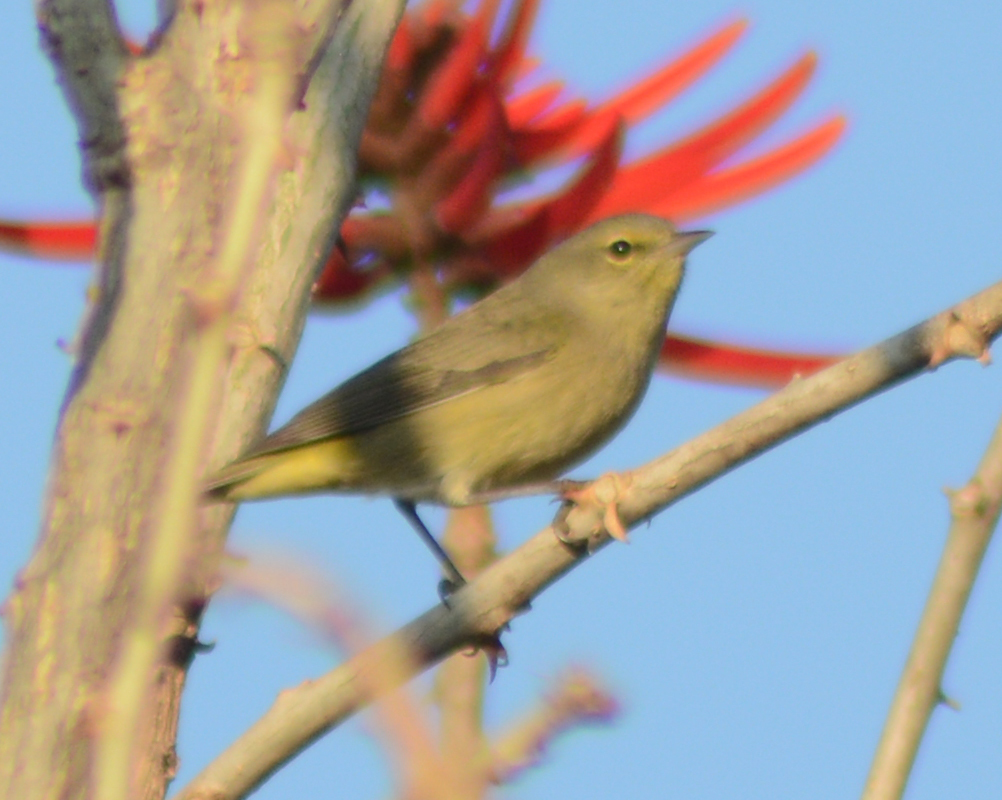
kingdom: Animalia
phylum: Chordata
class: Aves
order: Passeriformes
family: Parulidae
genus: Leiothlypis
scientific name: Leiothlypis celata
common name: Orange-crowned warbler
